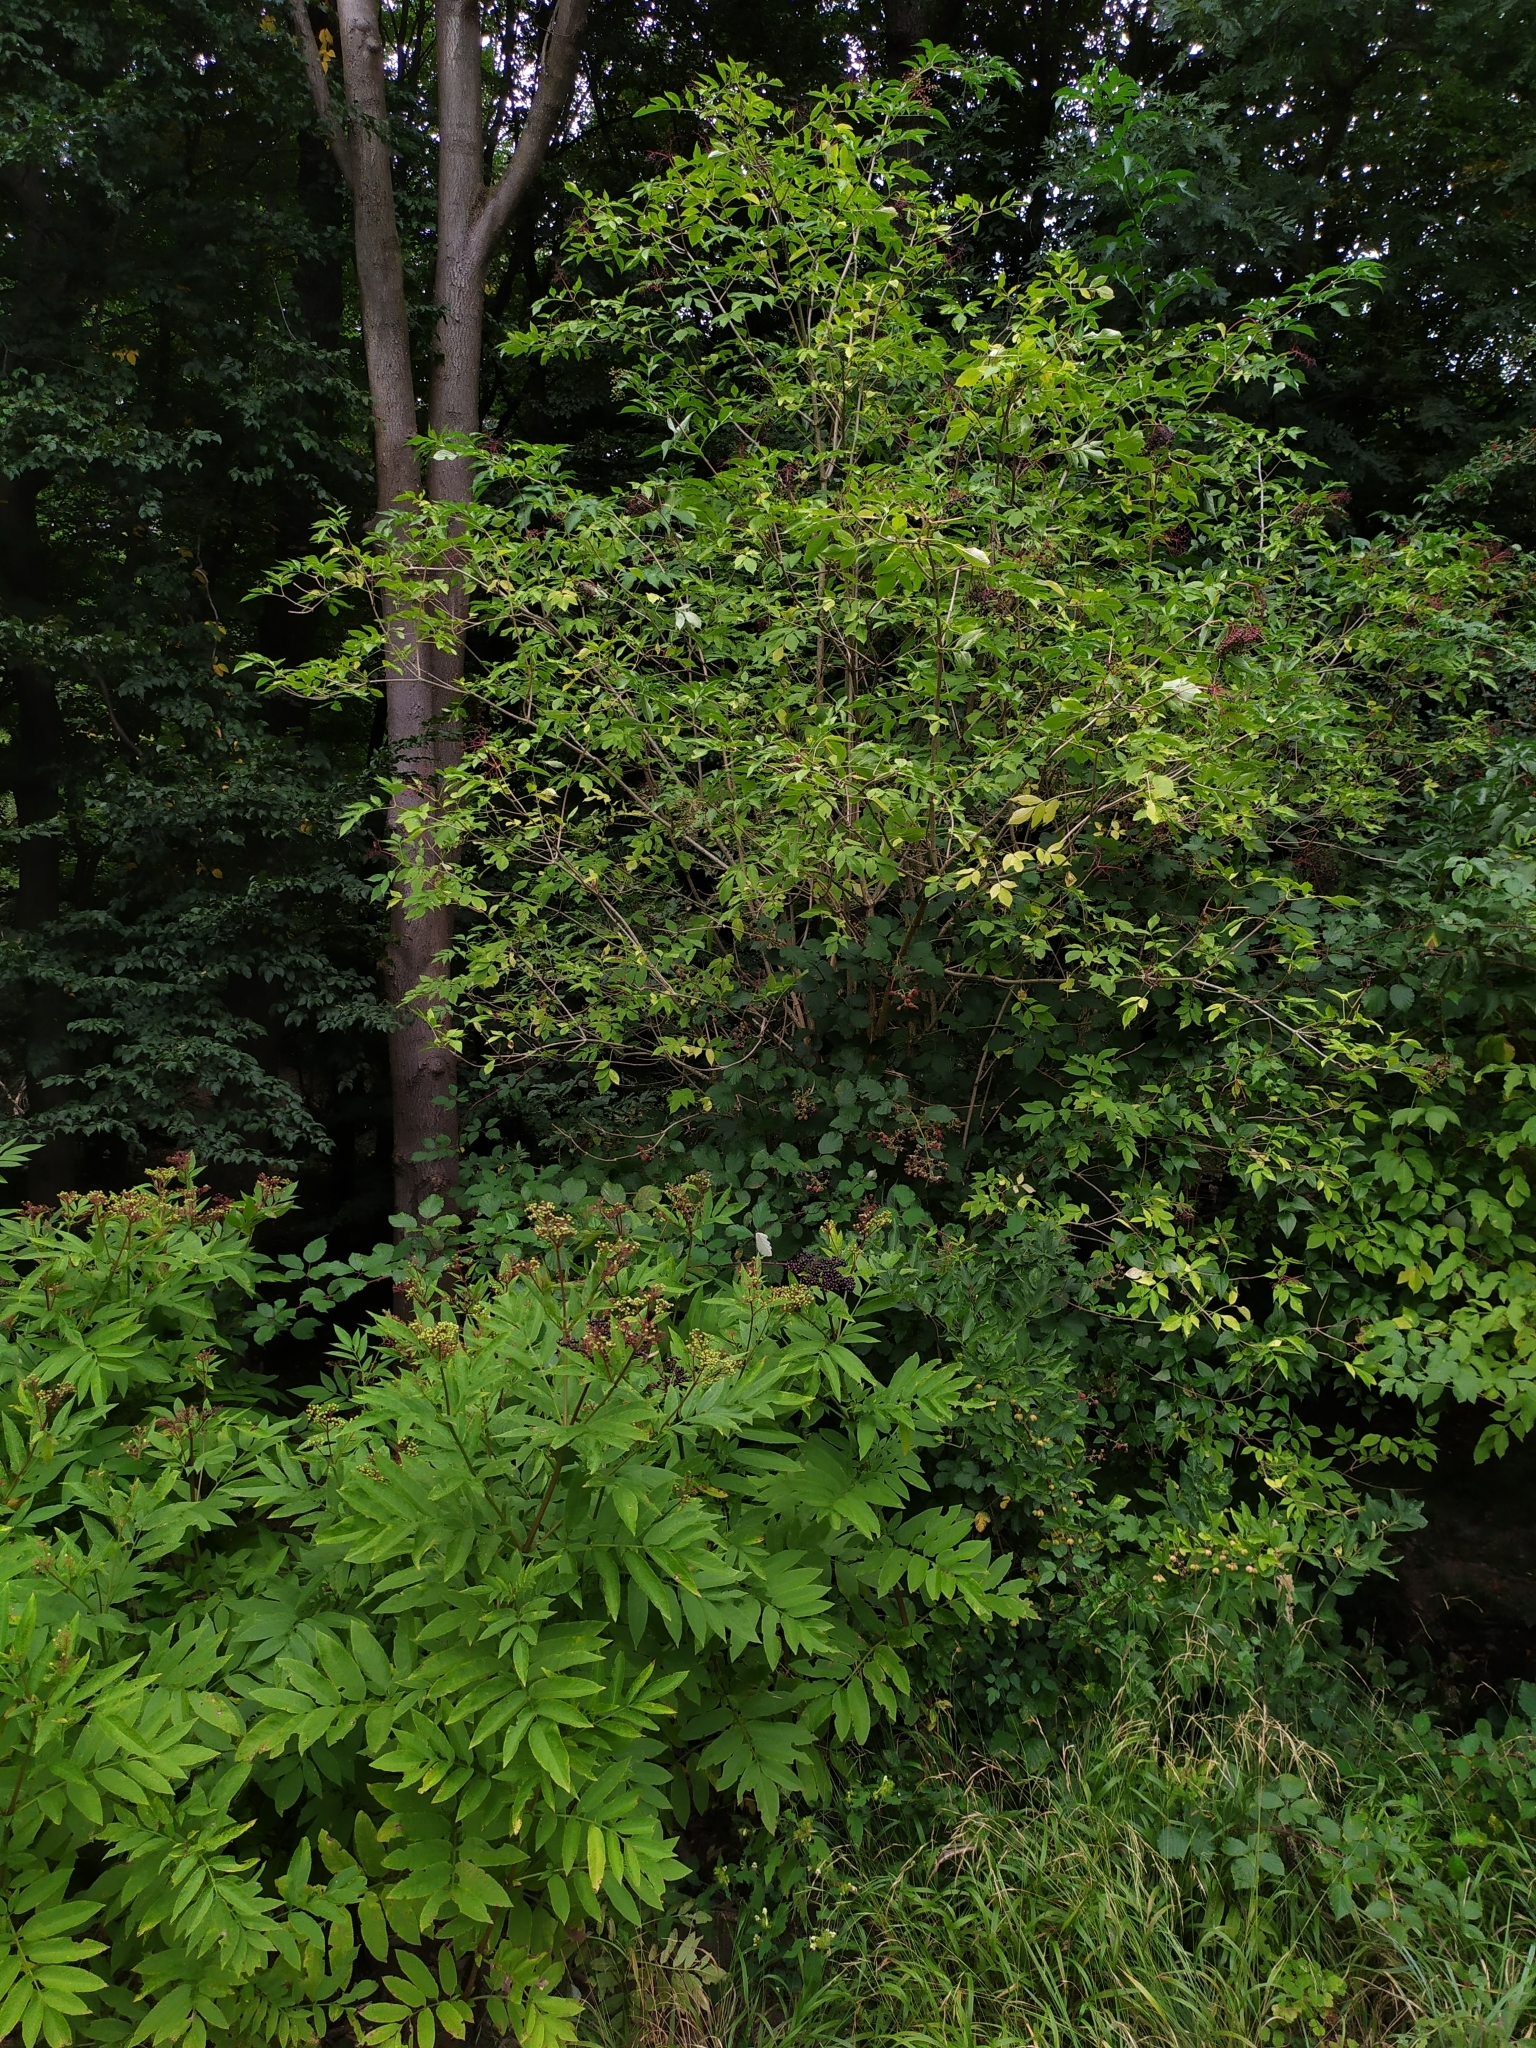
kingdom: Plantae
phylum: Tracheophyta
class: Magnoliopsida
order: Dipsacales
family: Viburnaceae
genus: Sambucus
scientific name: Sambucus ebulus
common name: Dwarf elder
